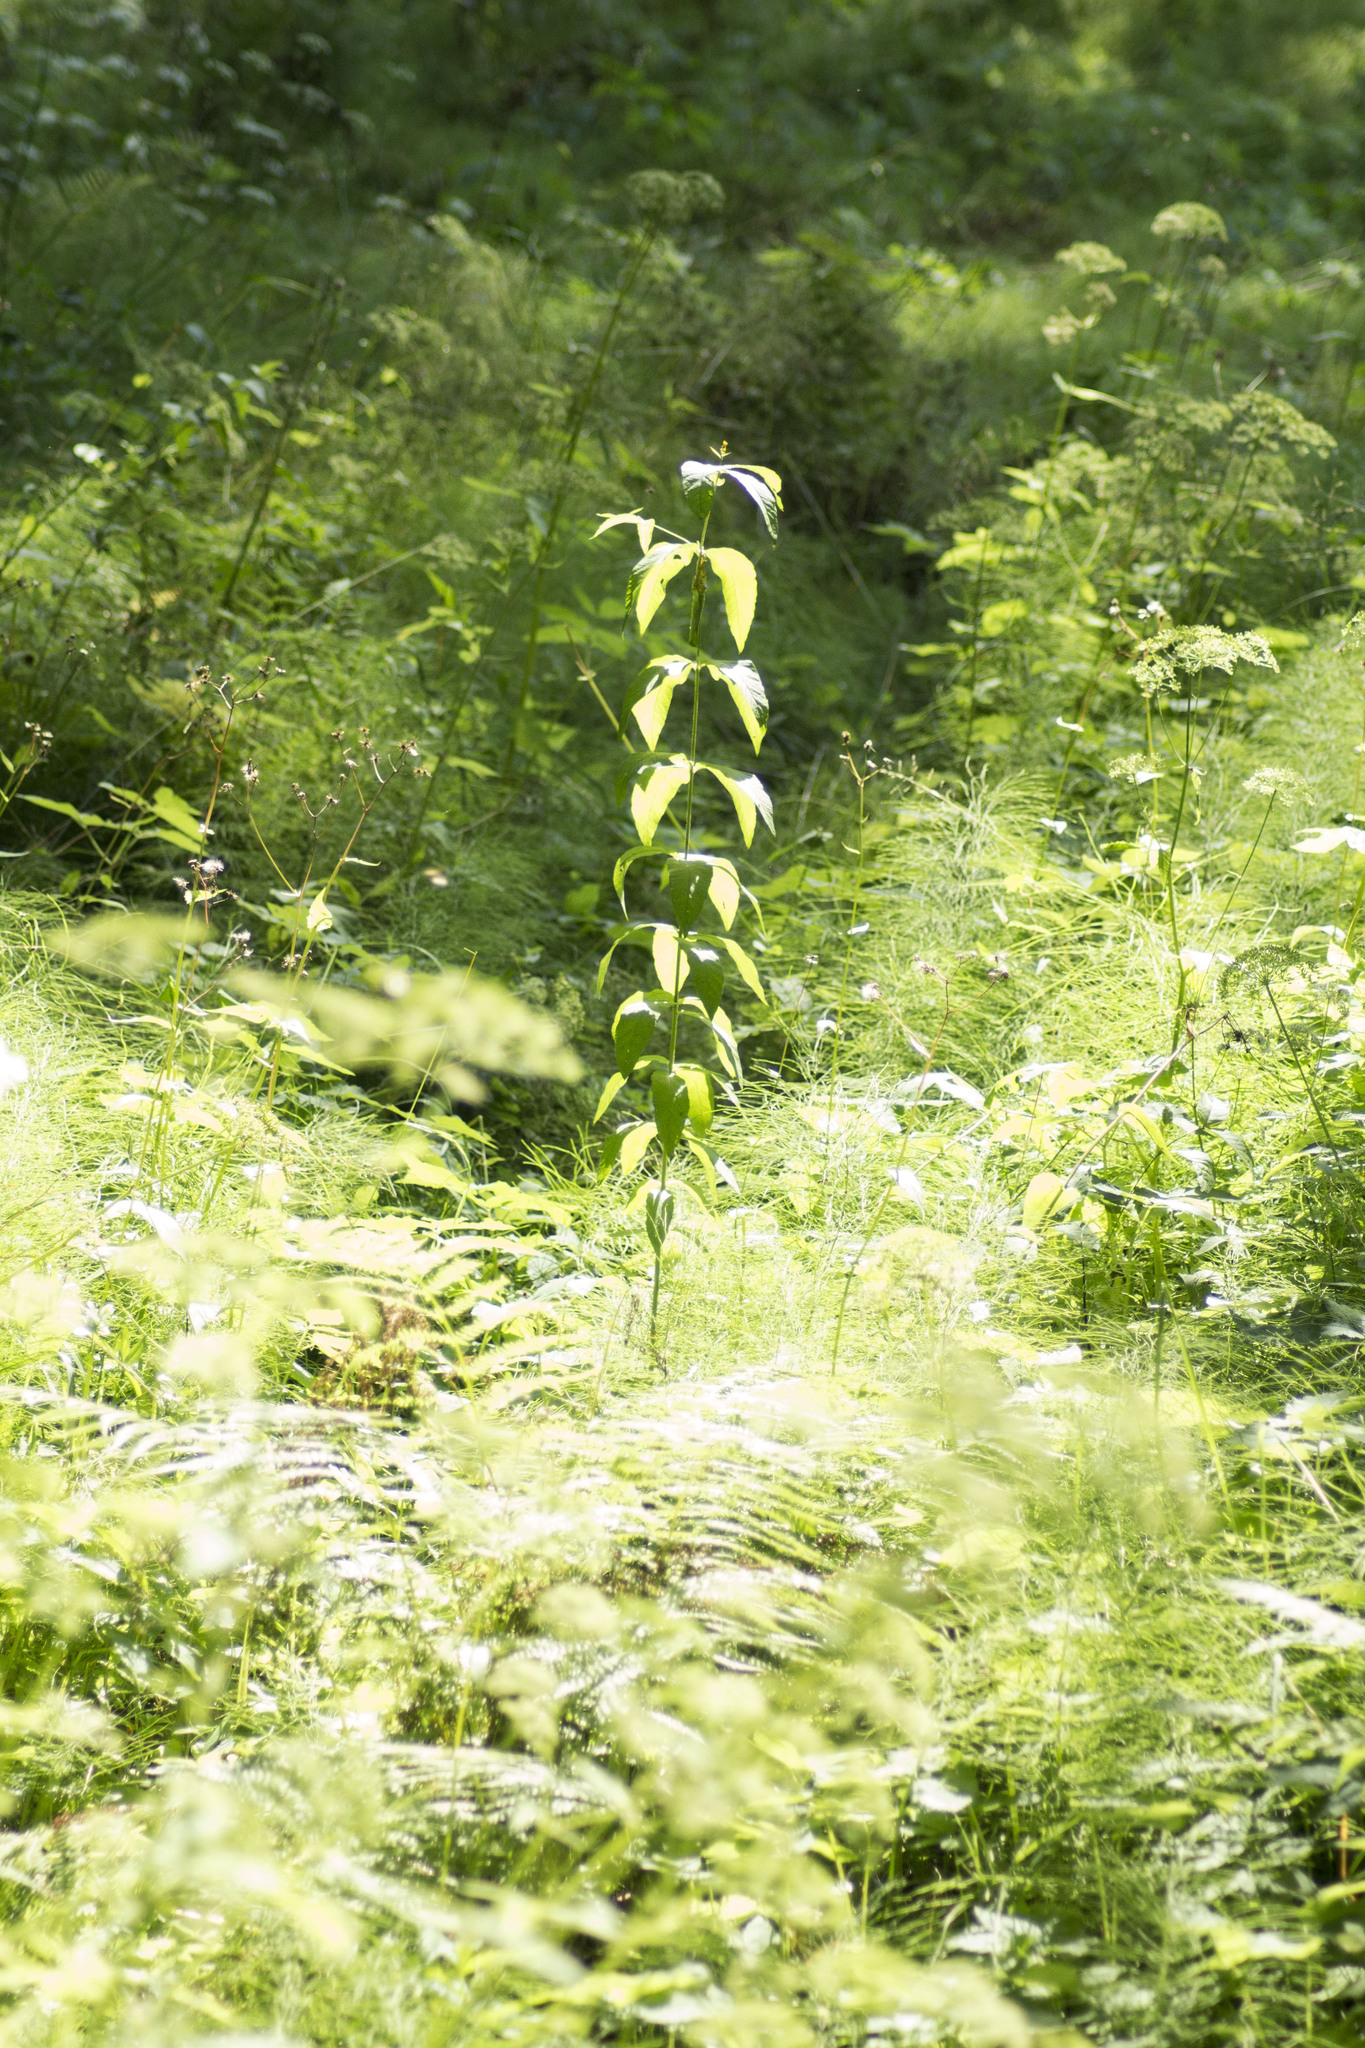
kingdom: Plantae
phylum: Tracheophyta
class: Magnoliopsida
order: Ericales
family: Primulaceae
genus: Lysimachia
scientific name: Lysimachia vulgaris
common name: Yellow loosestrife
